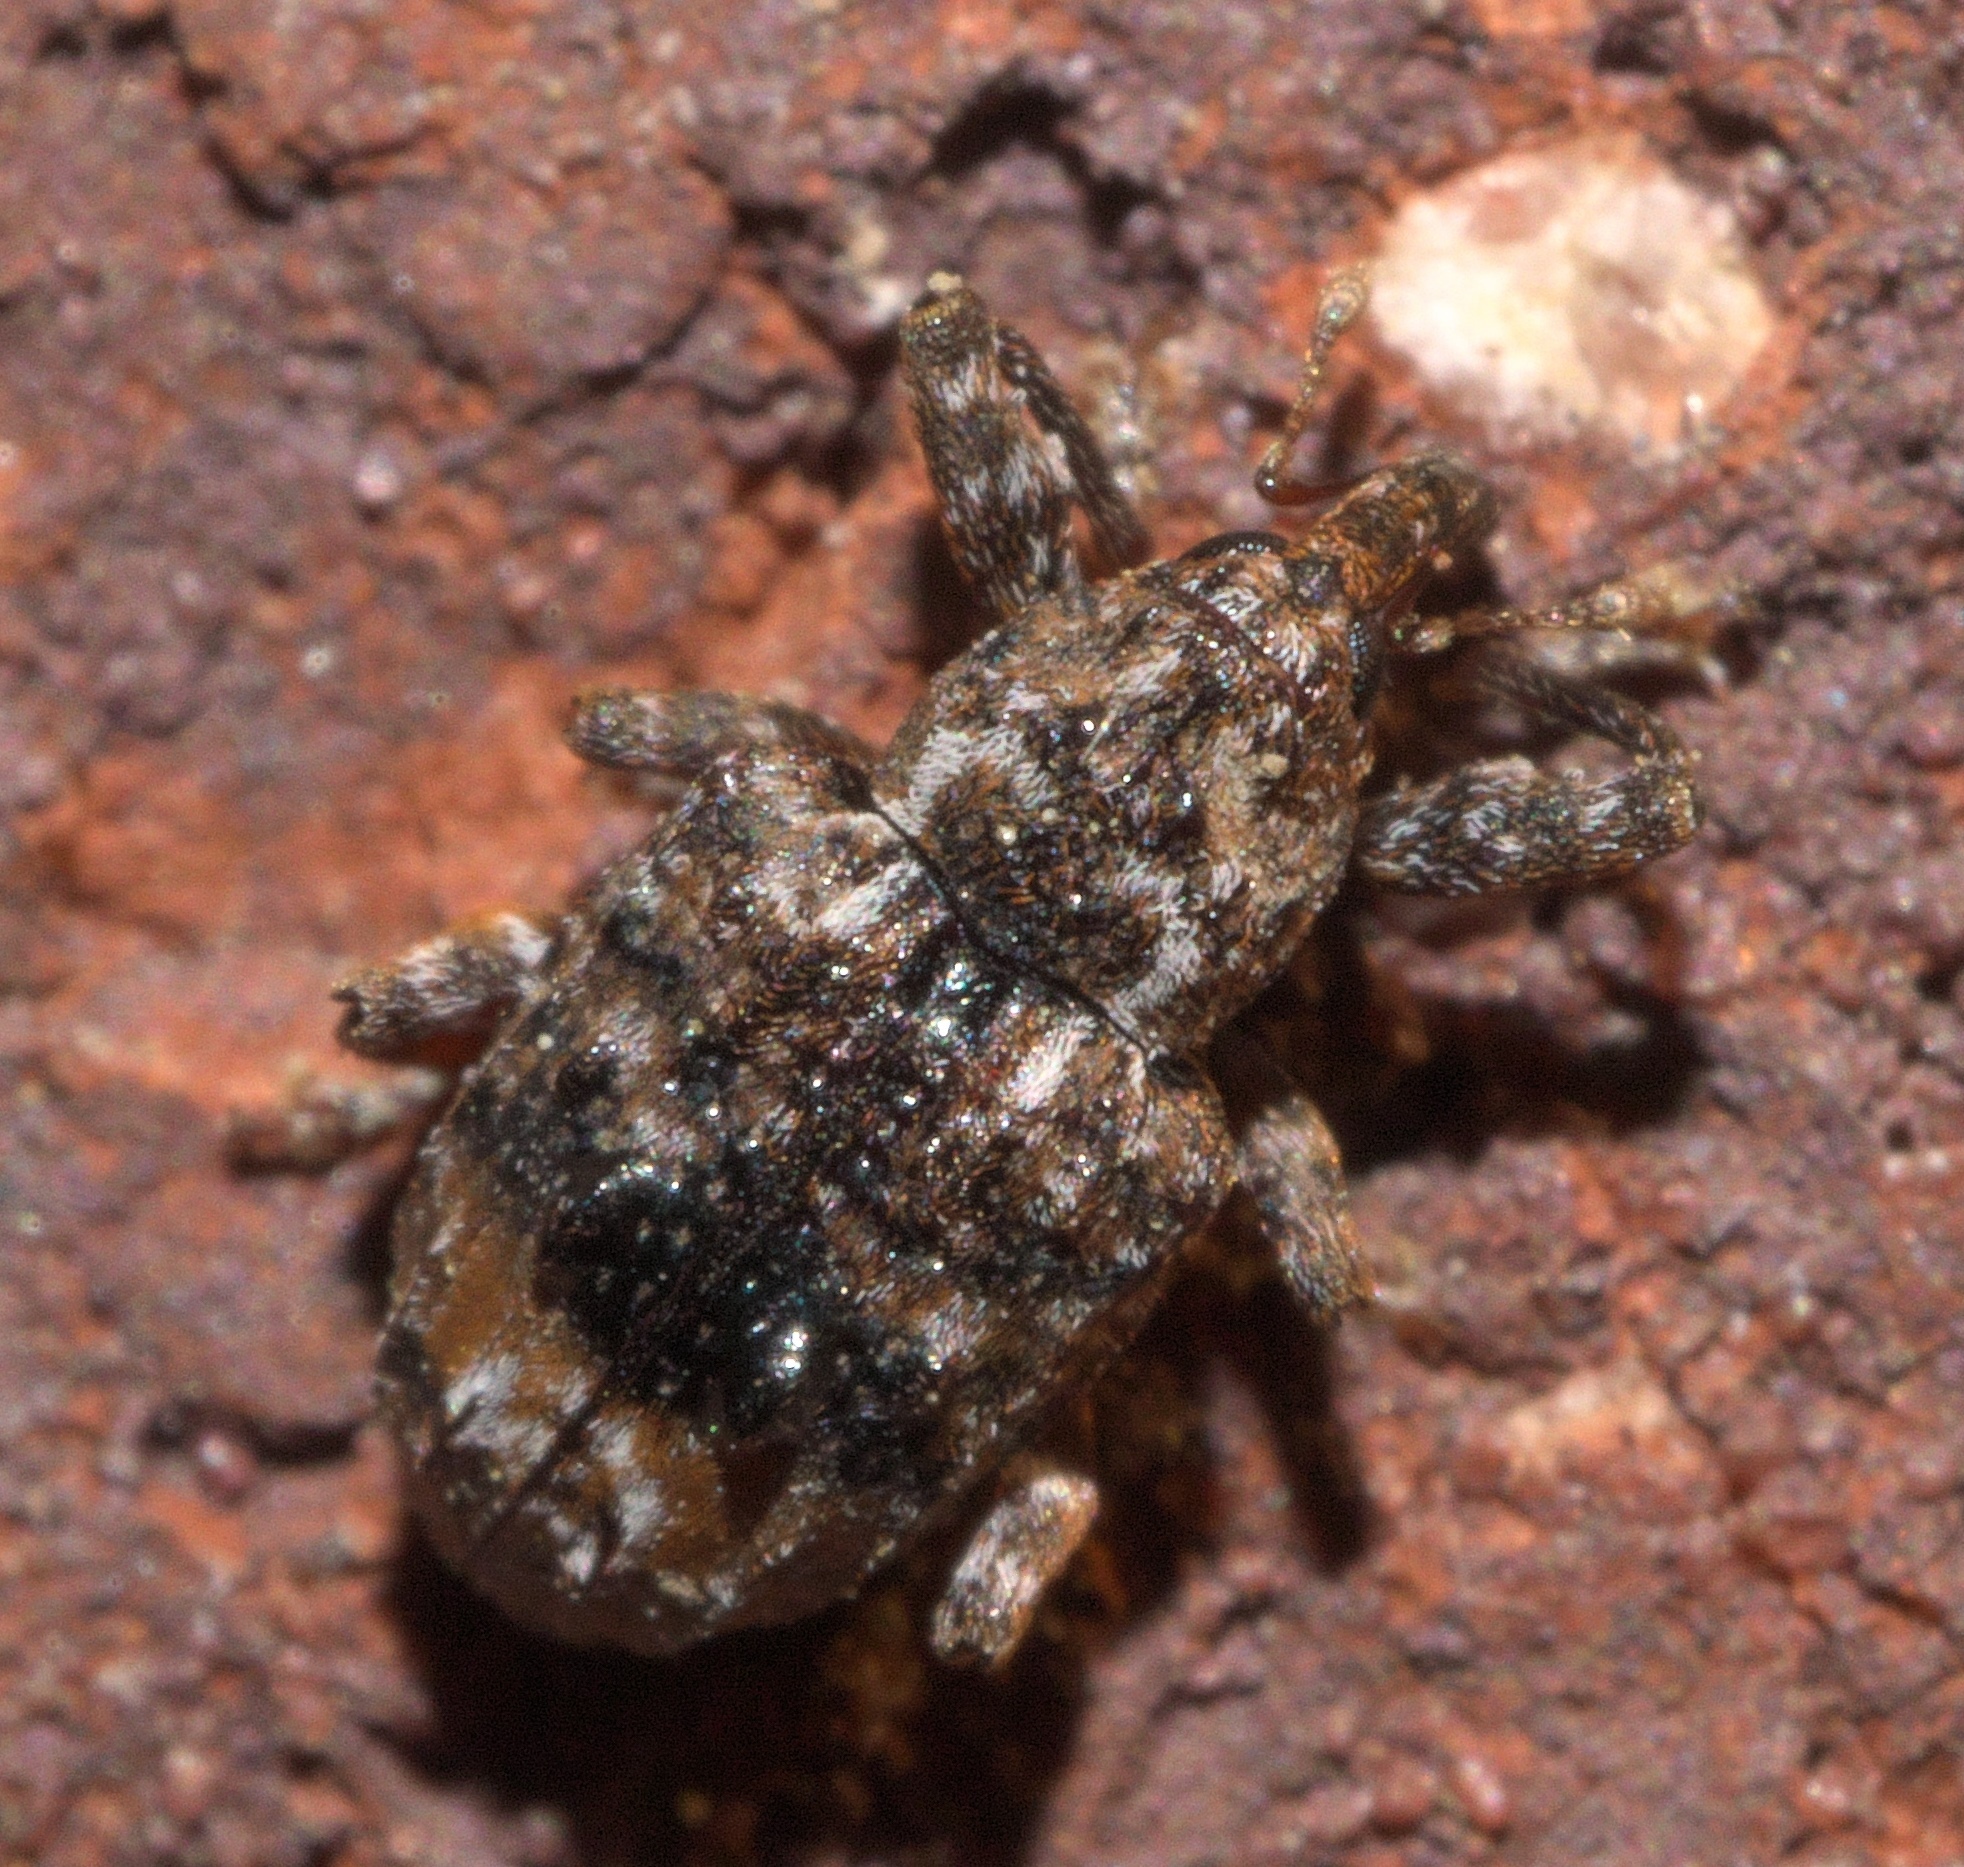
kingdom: Animalia
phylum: Arthropoda
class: Insecta
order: Coleoptera
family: Curculionidae
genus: Conotrachelus
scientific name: Conotrachelus nenuphar
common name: Plum curculio
